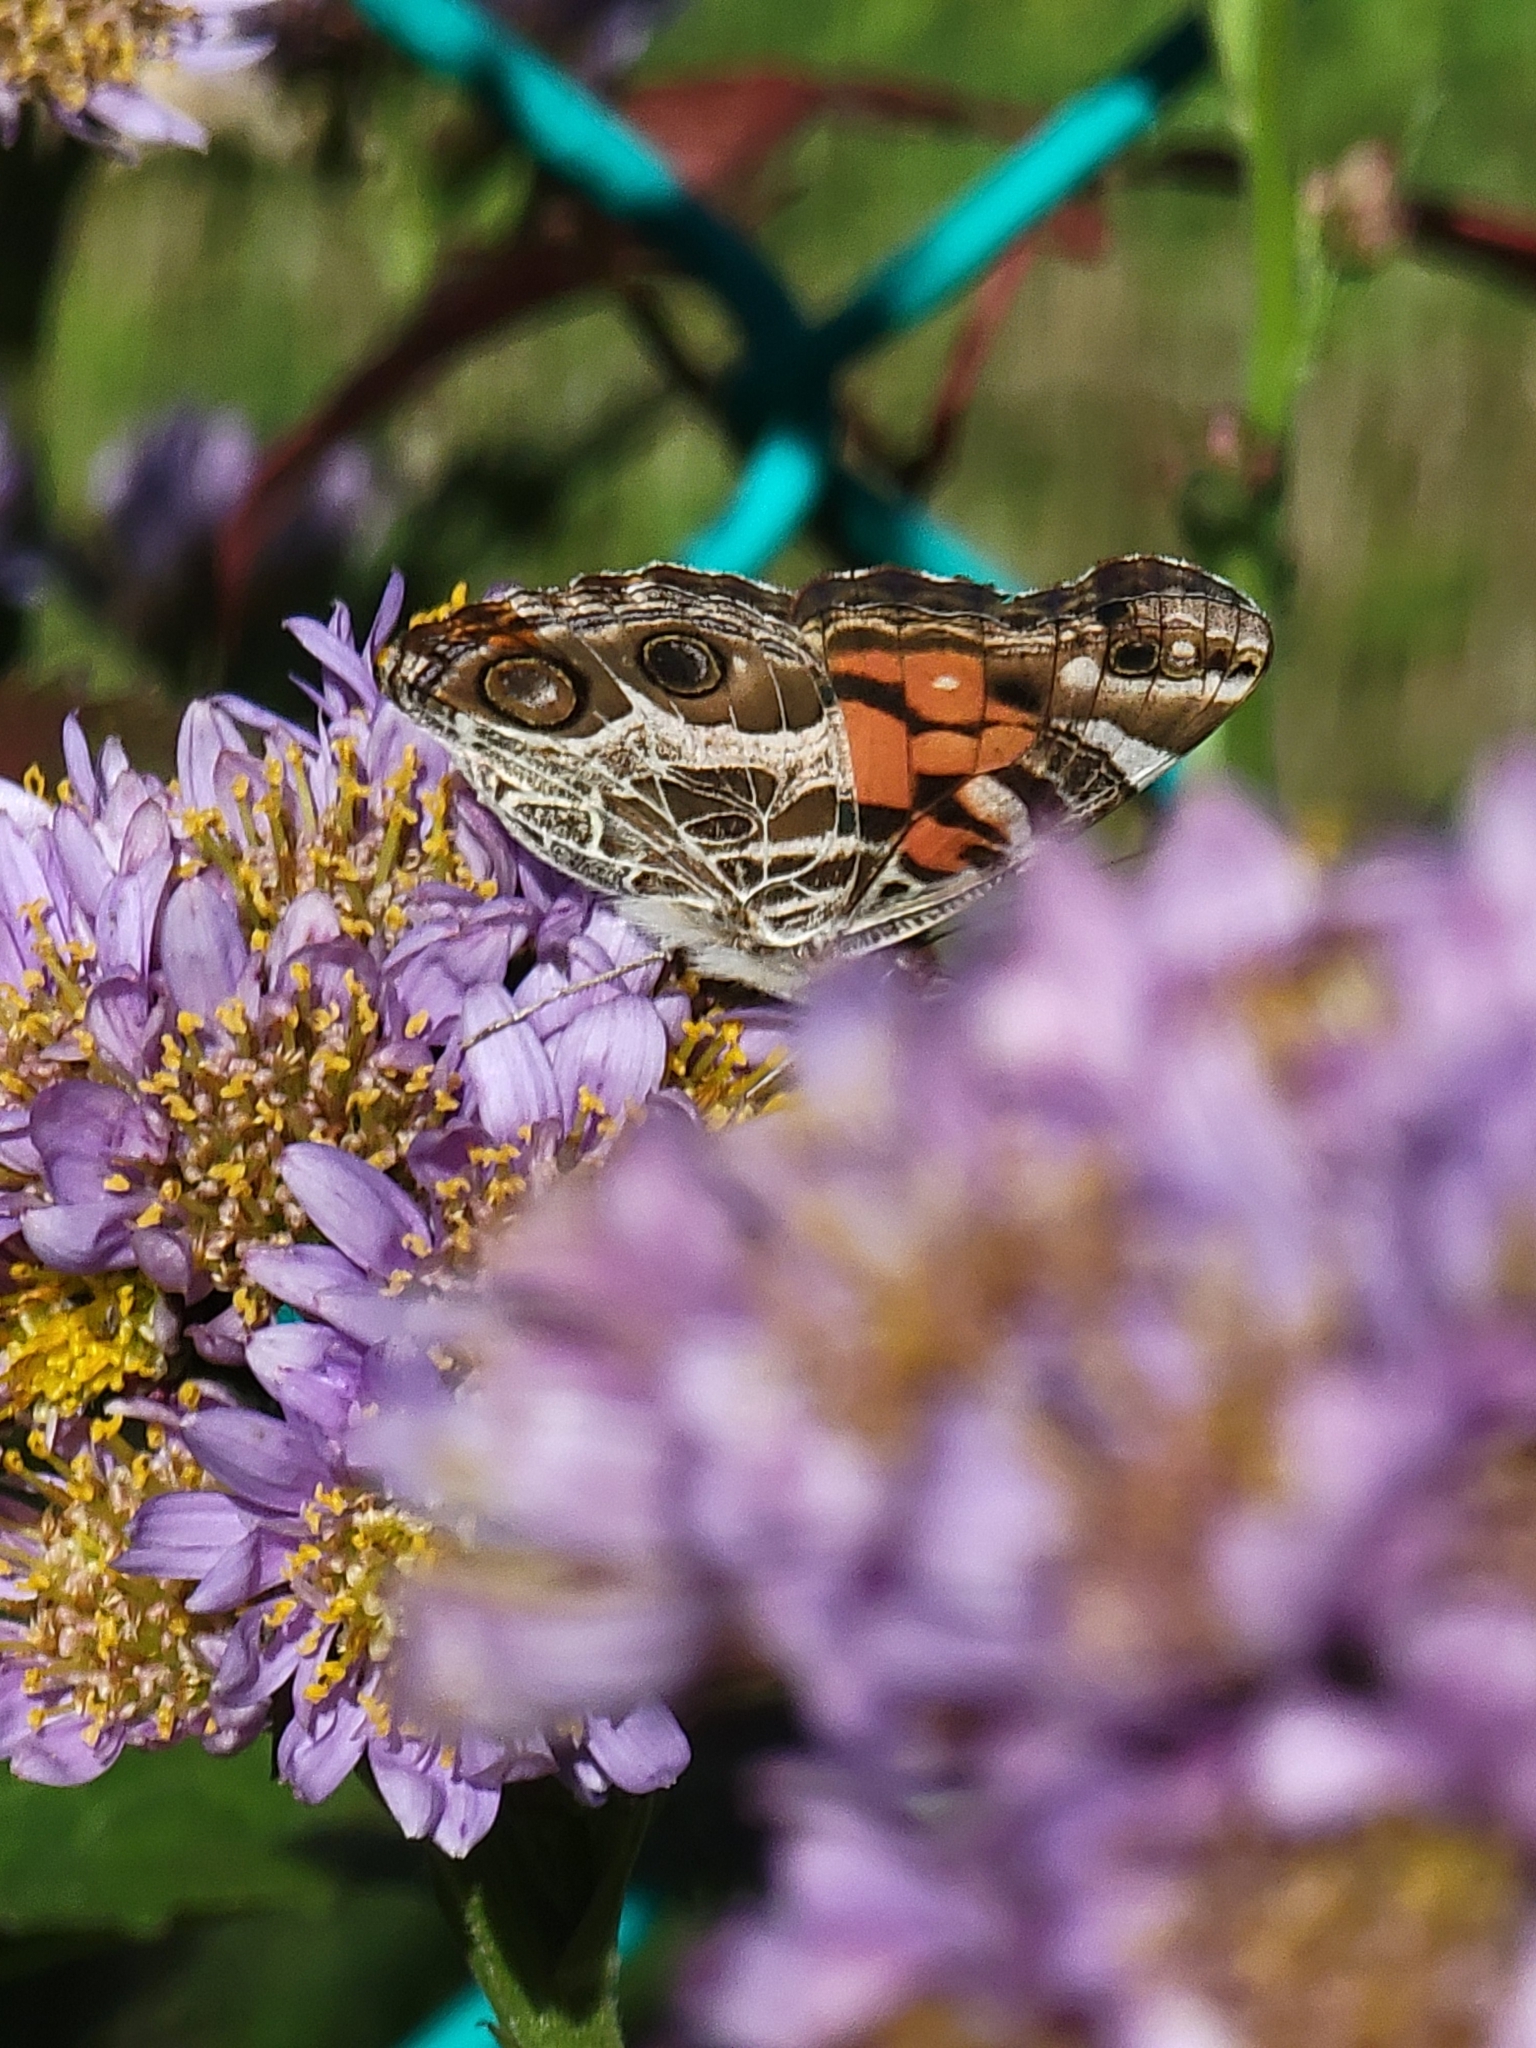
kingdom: Animalia
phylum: Arthropoda
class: Insecta
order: Lepidoptera
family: Nymphalidae
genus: Vanessa
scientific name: Vanessa virginiensis
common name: American lady
